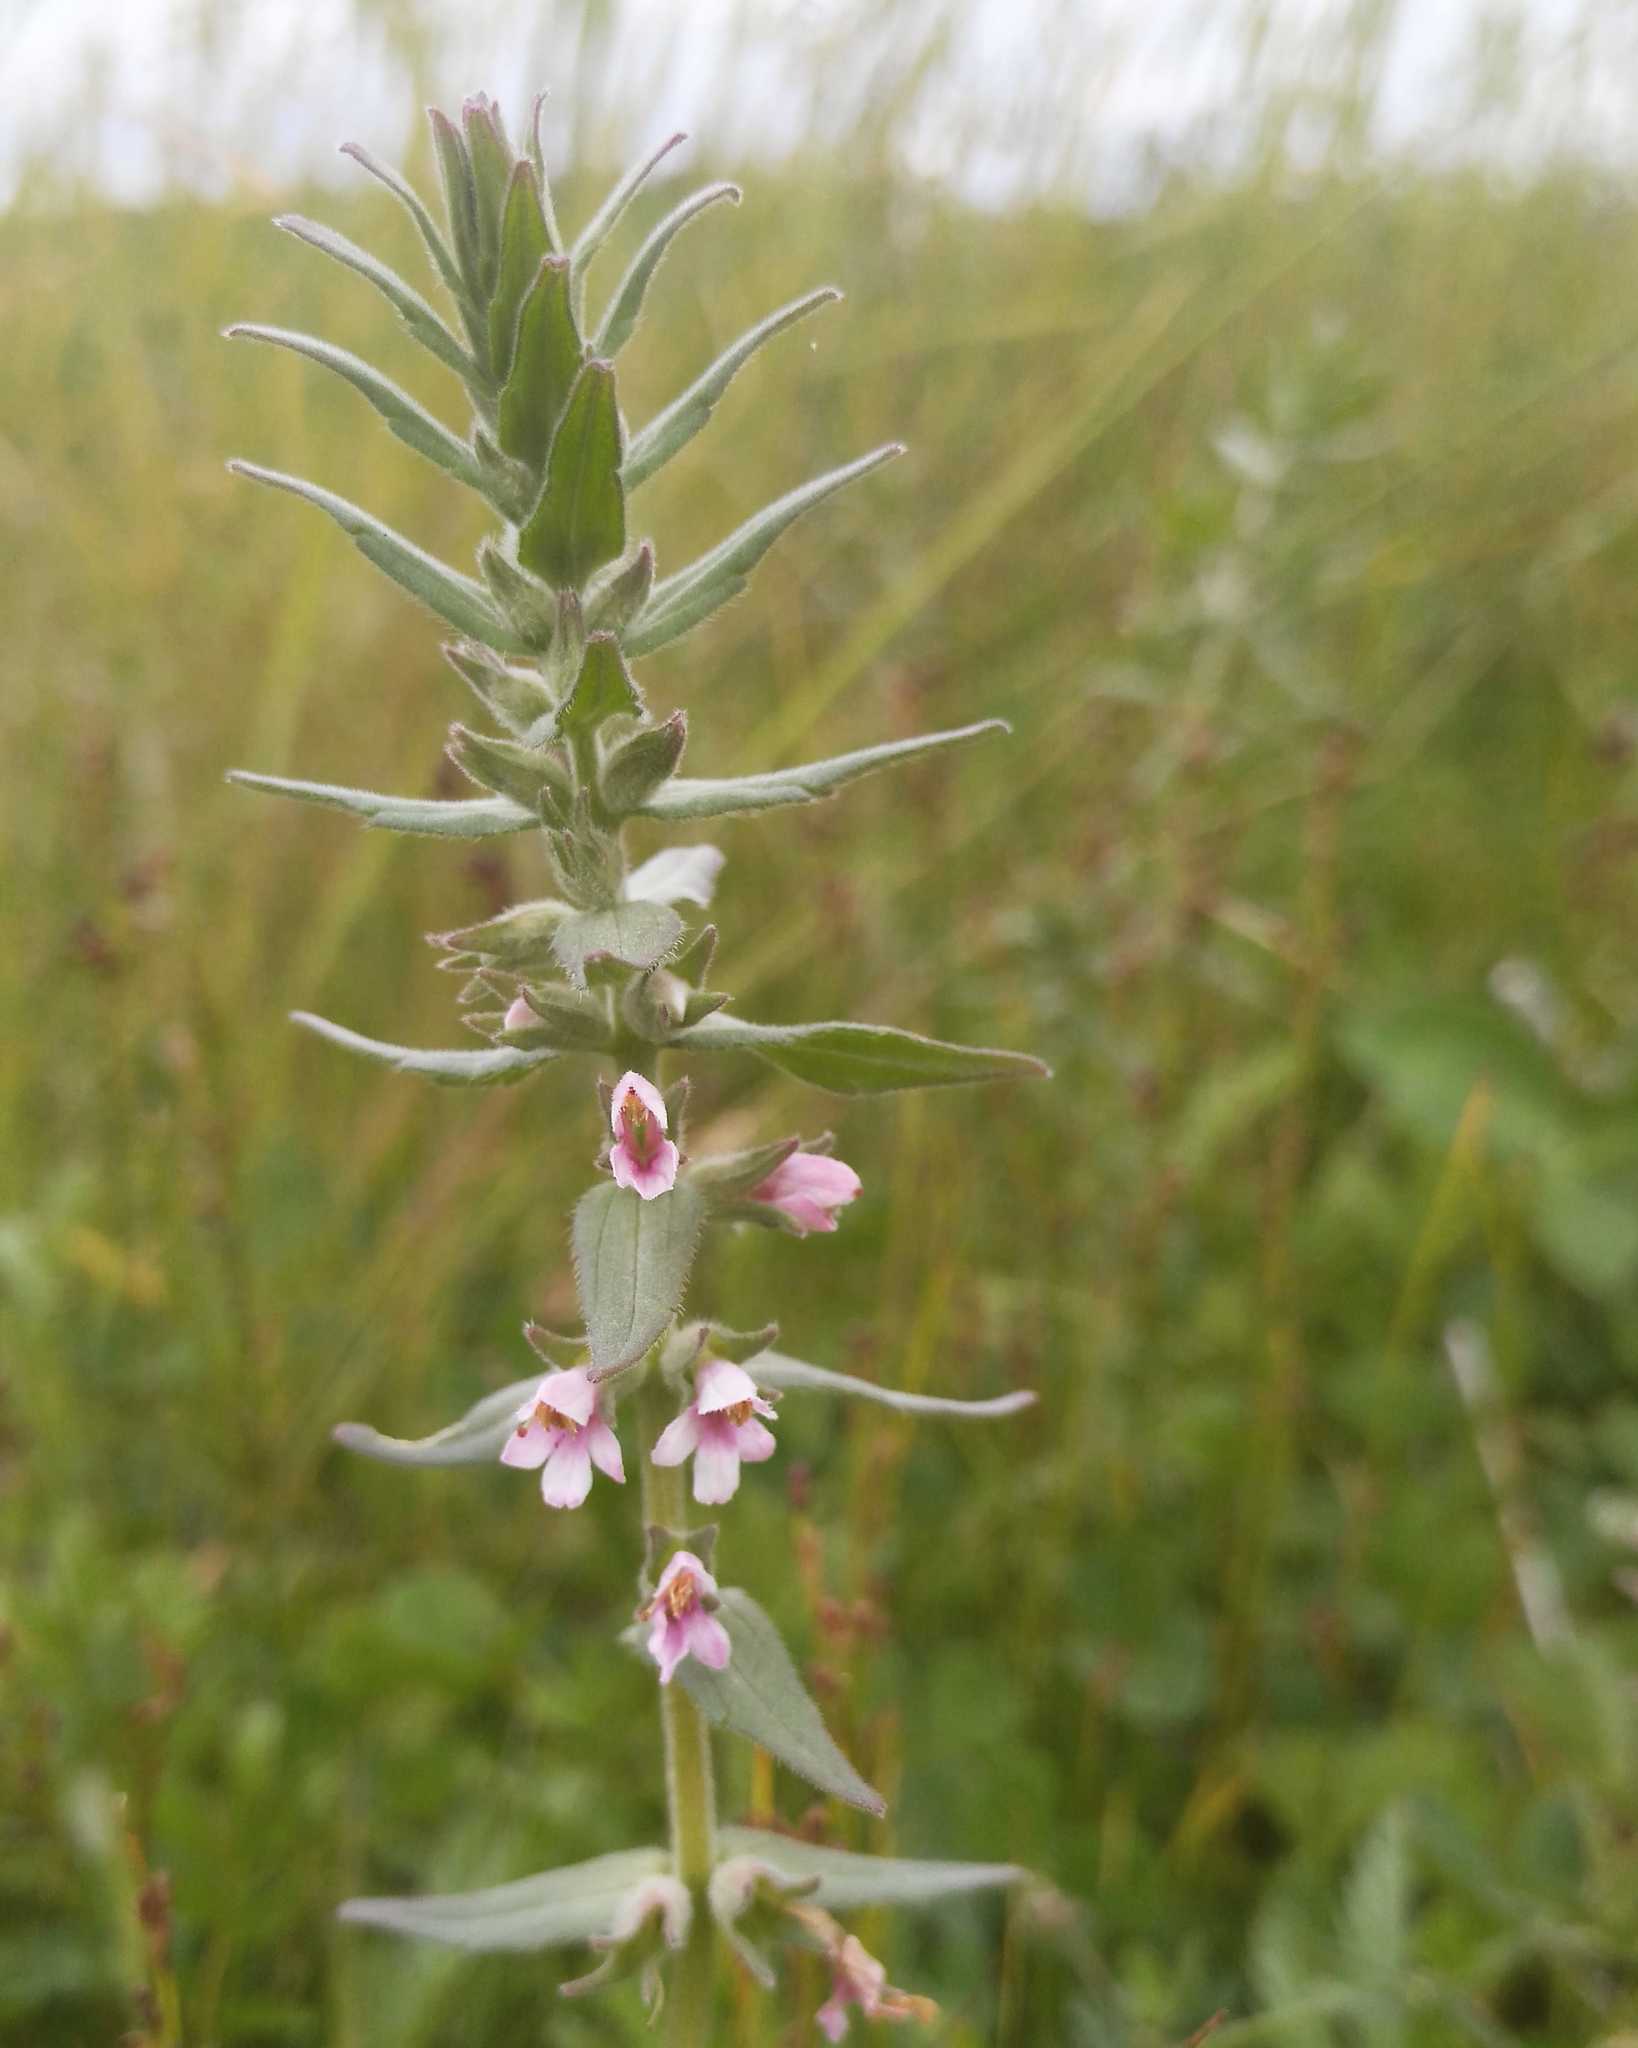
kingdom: Plantae
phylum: Tracheophyta
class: Magnoliopsida
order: Lamiales
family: Orobanchaceae
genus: Odontites
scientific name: Odontites vulgaris
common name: Broomrape
